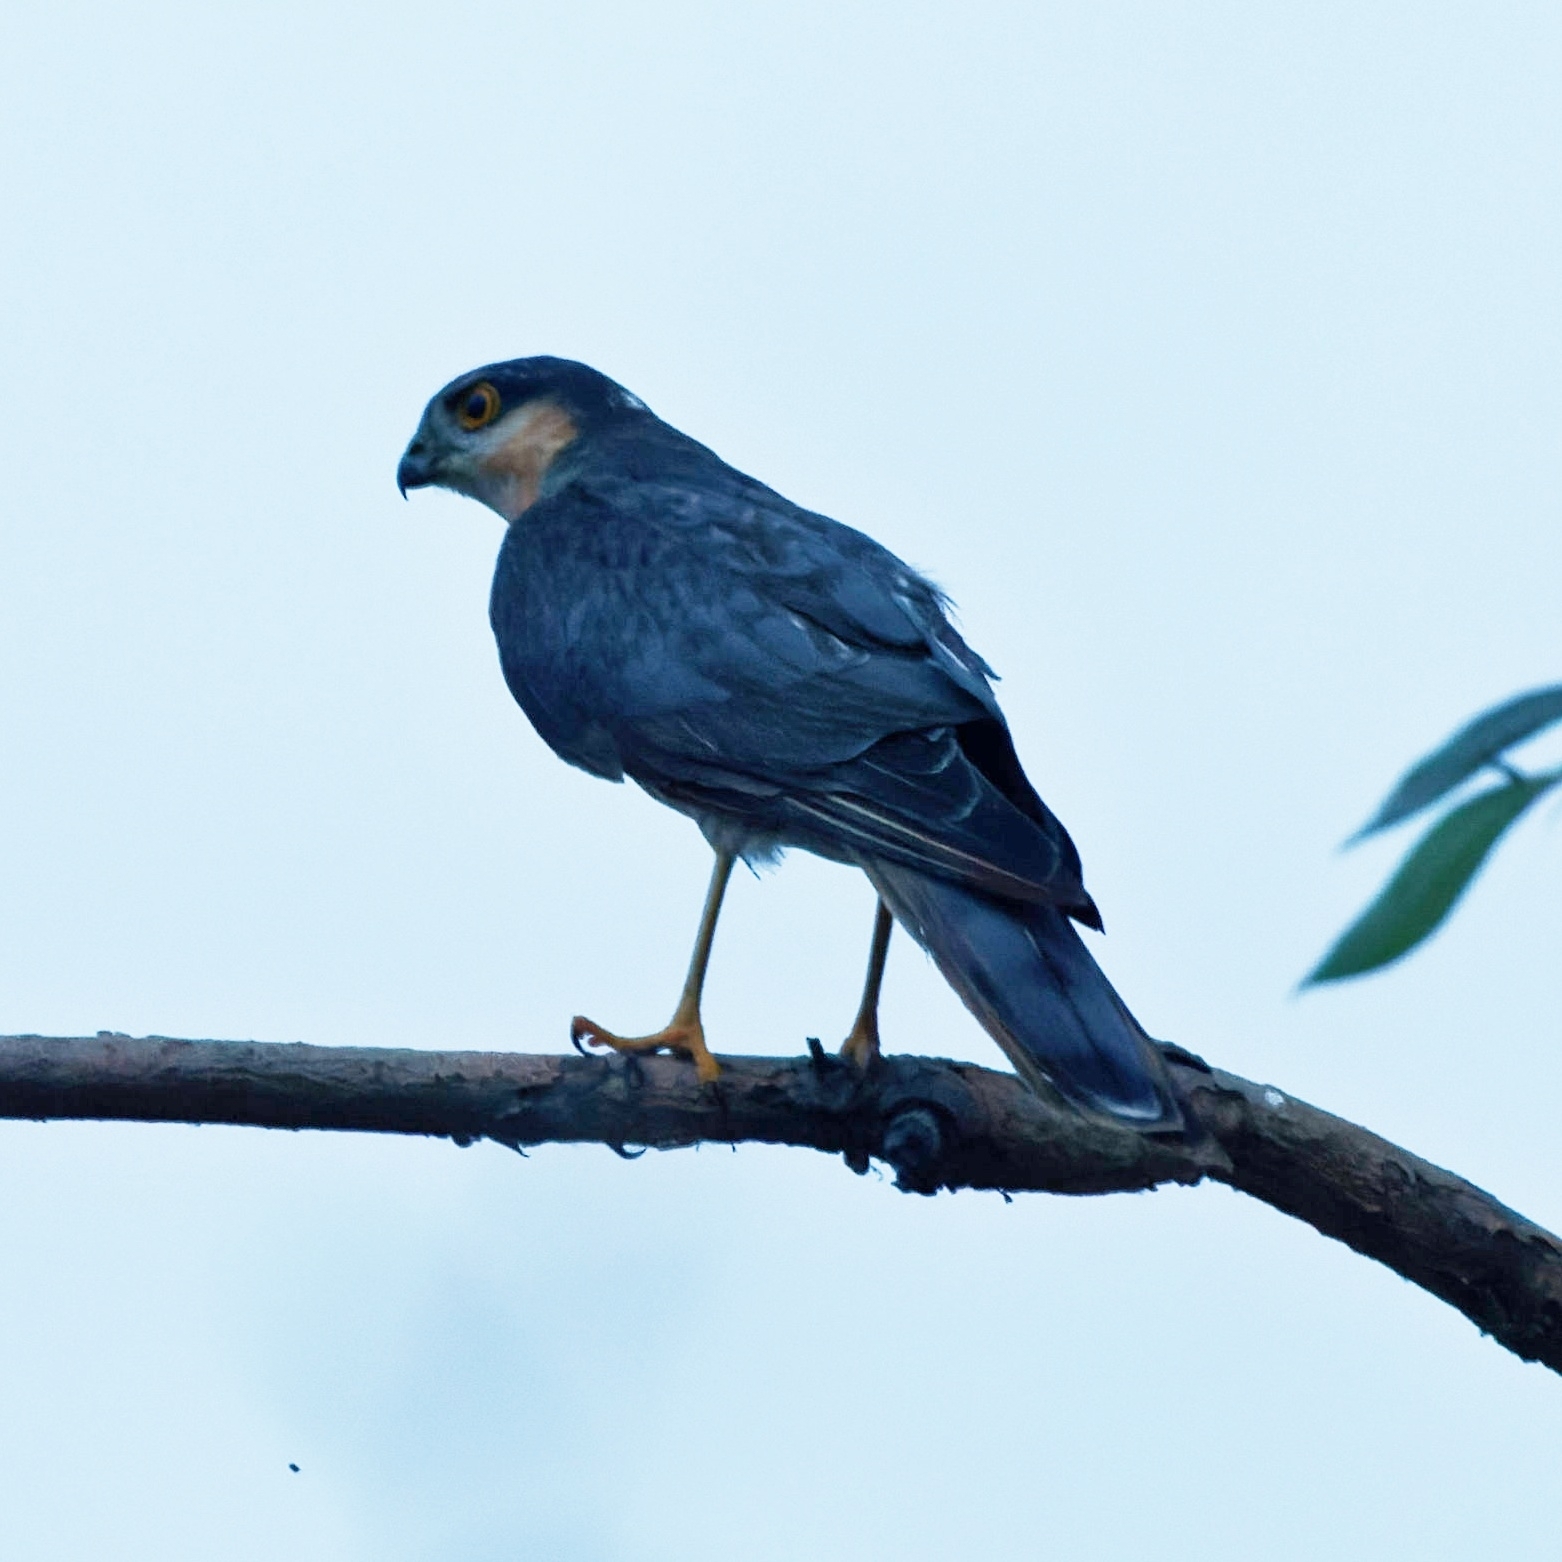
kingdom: Animalia
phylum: Chordata
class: Aves
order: Accipitriformes
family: Accipitridae
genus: Accipiter
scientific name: Accipiter nisus
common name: Eurasian sparrowhawk
